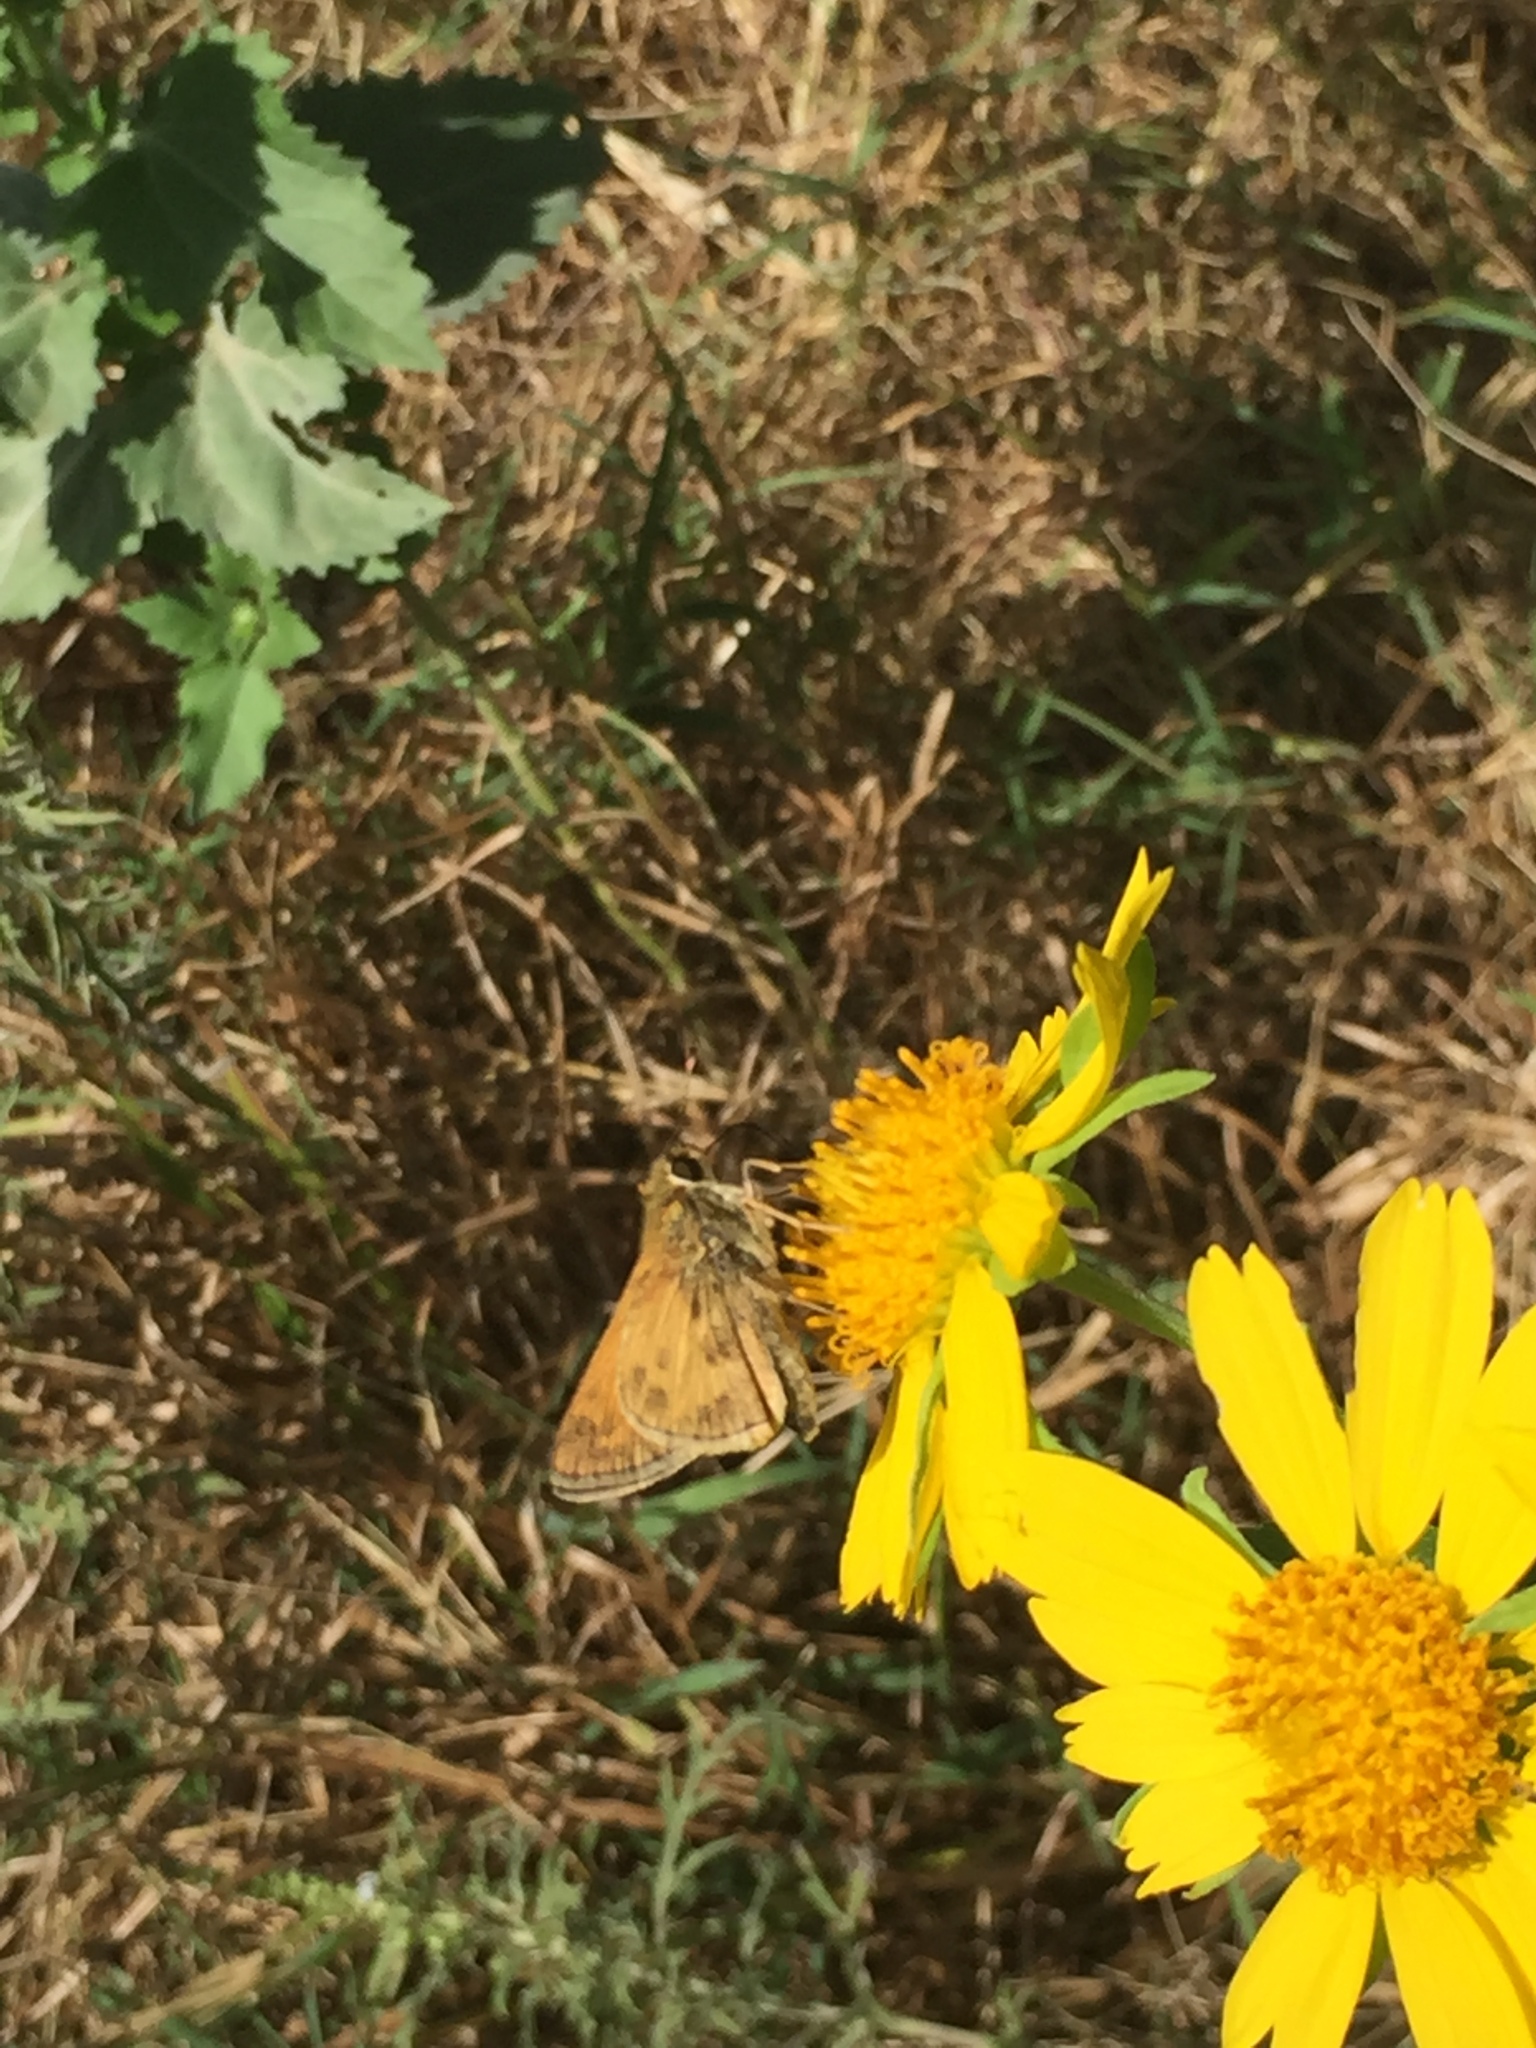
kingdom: Animalia
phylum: Arthropoda
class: Insecta
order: Lepidoptera
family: Hesperiidae
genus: Atalopedes
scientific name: Atalopedes
